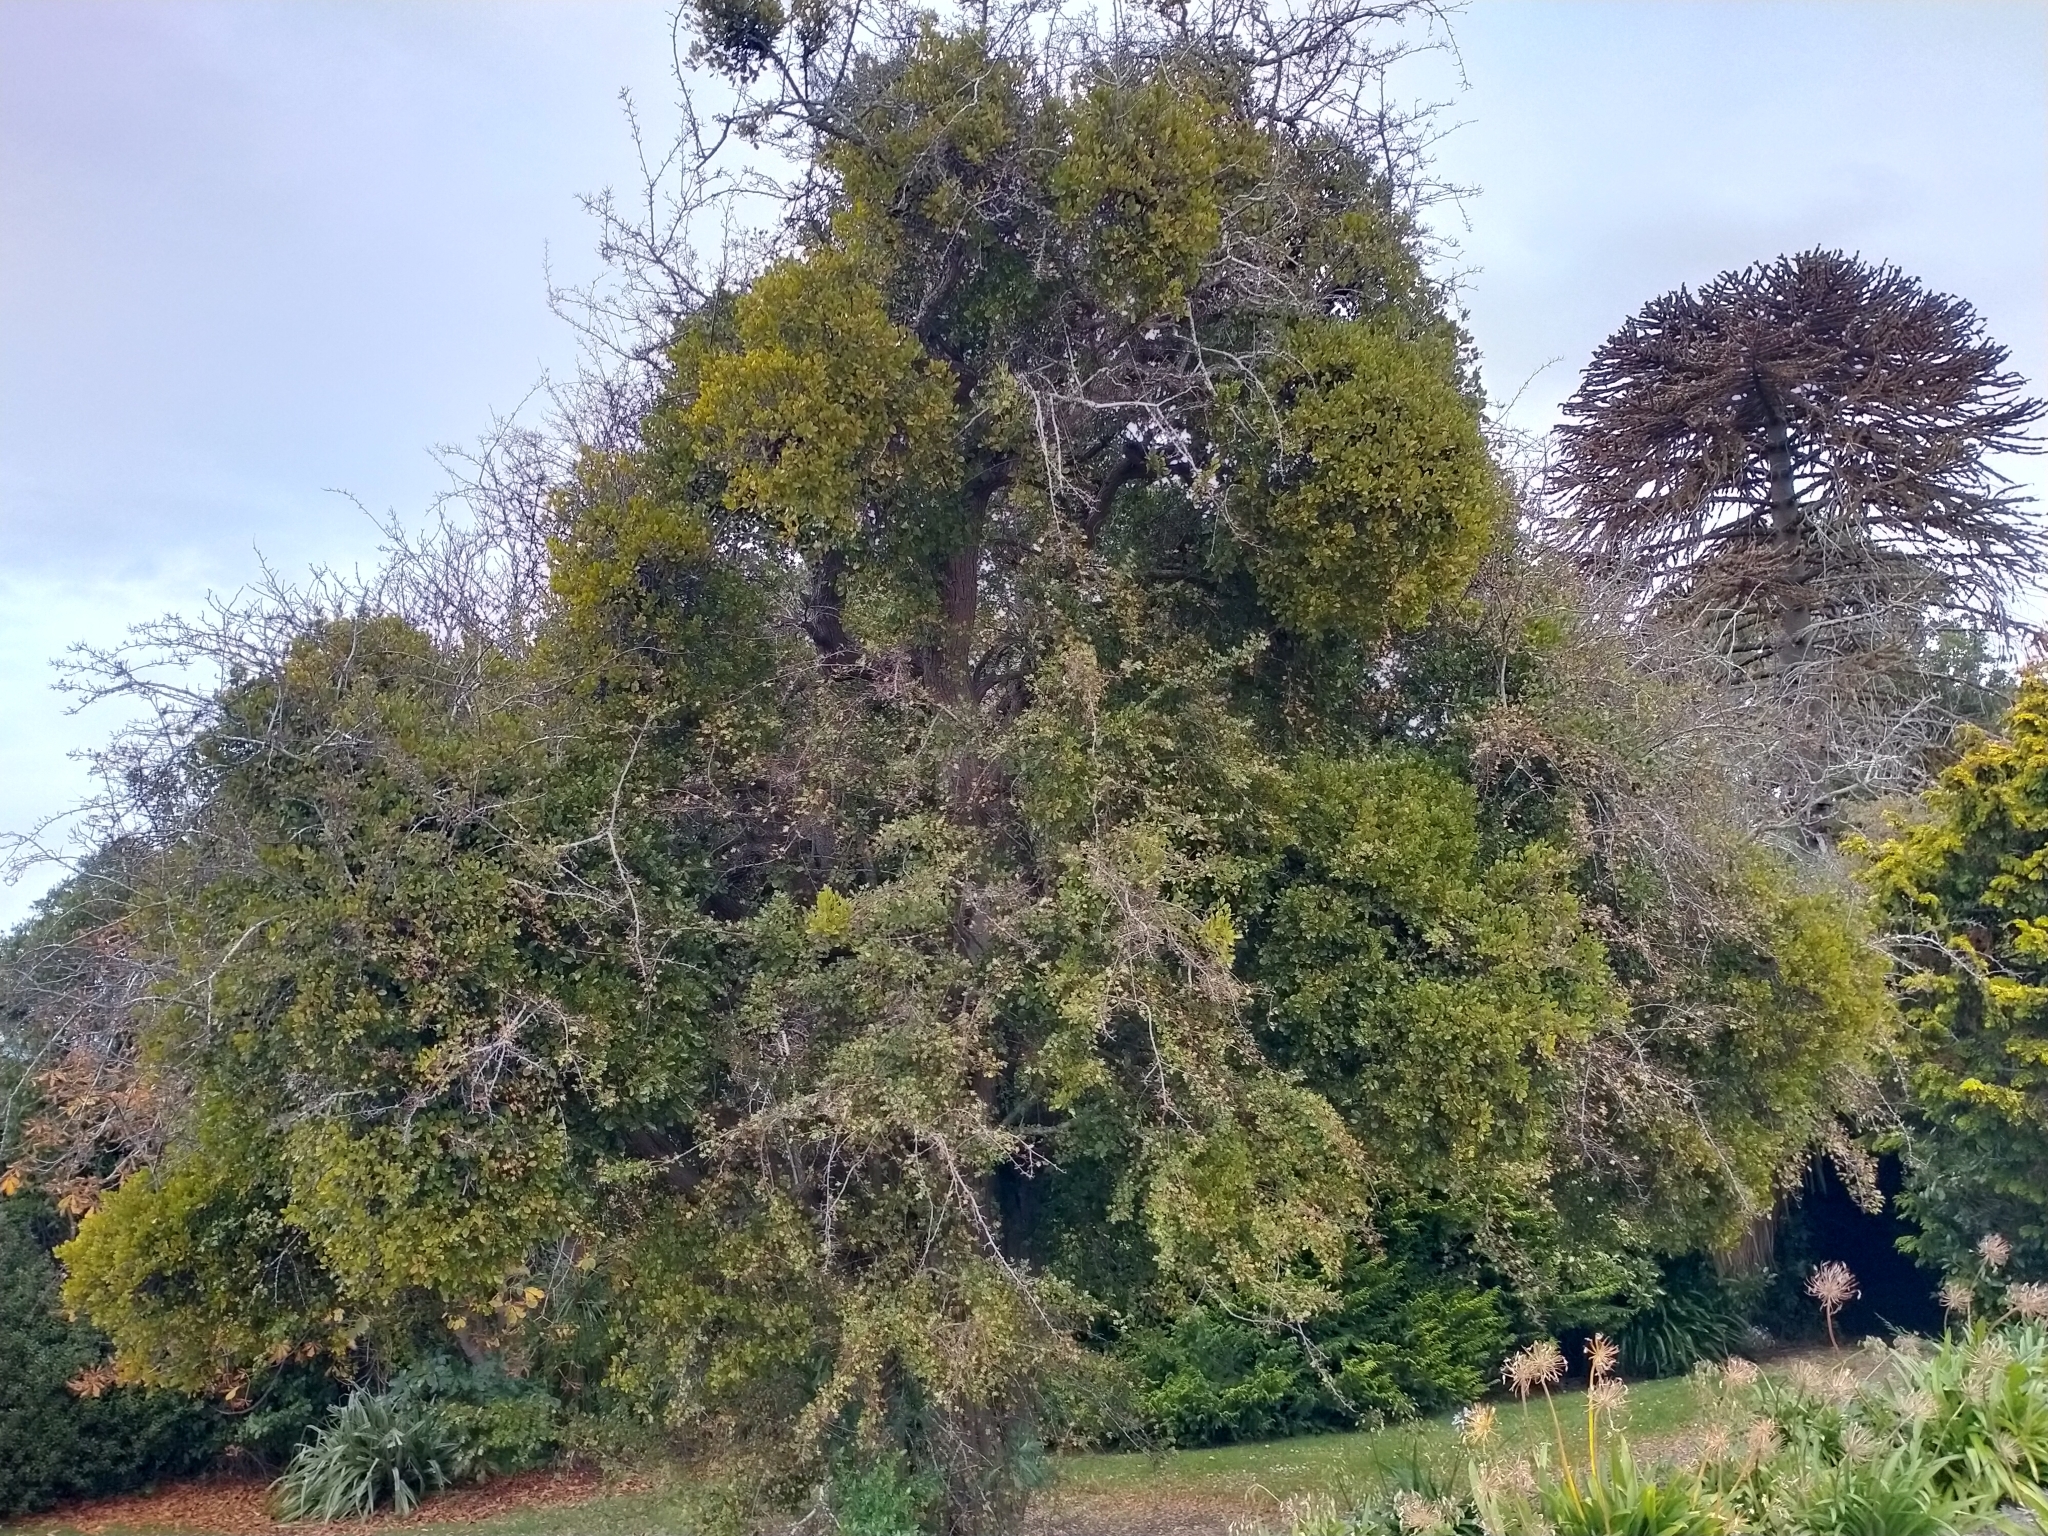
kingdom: Plantae
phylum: Tracheophyta
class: Magnoliopsida
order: Santalales
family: Loranthaceae
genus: Ileostylus
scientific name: Ileostylus micranthus
